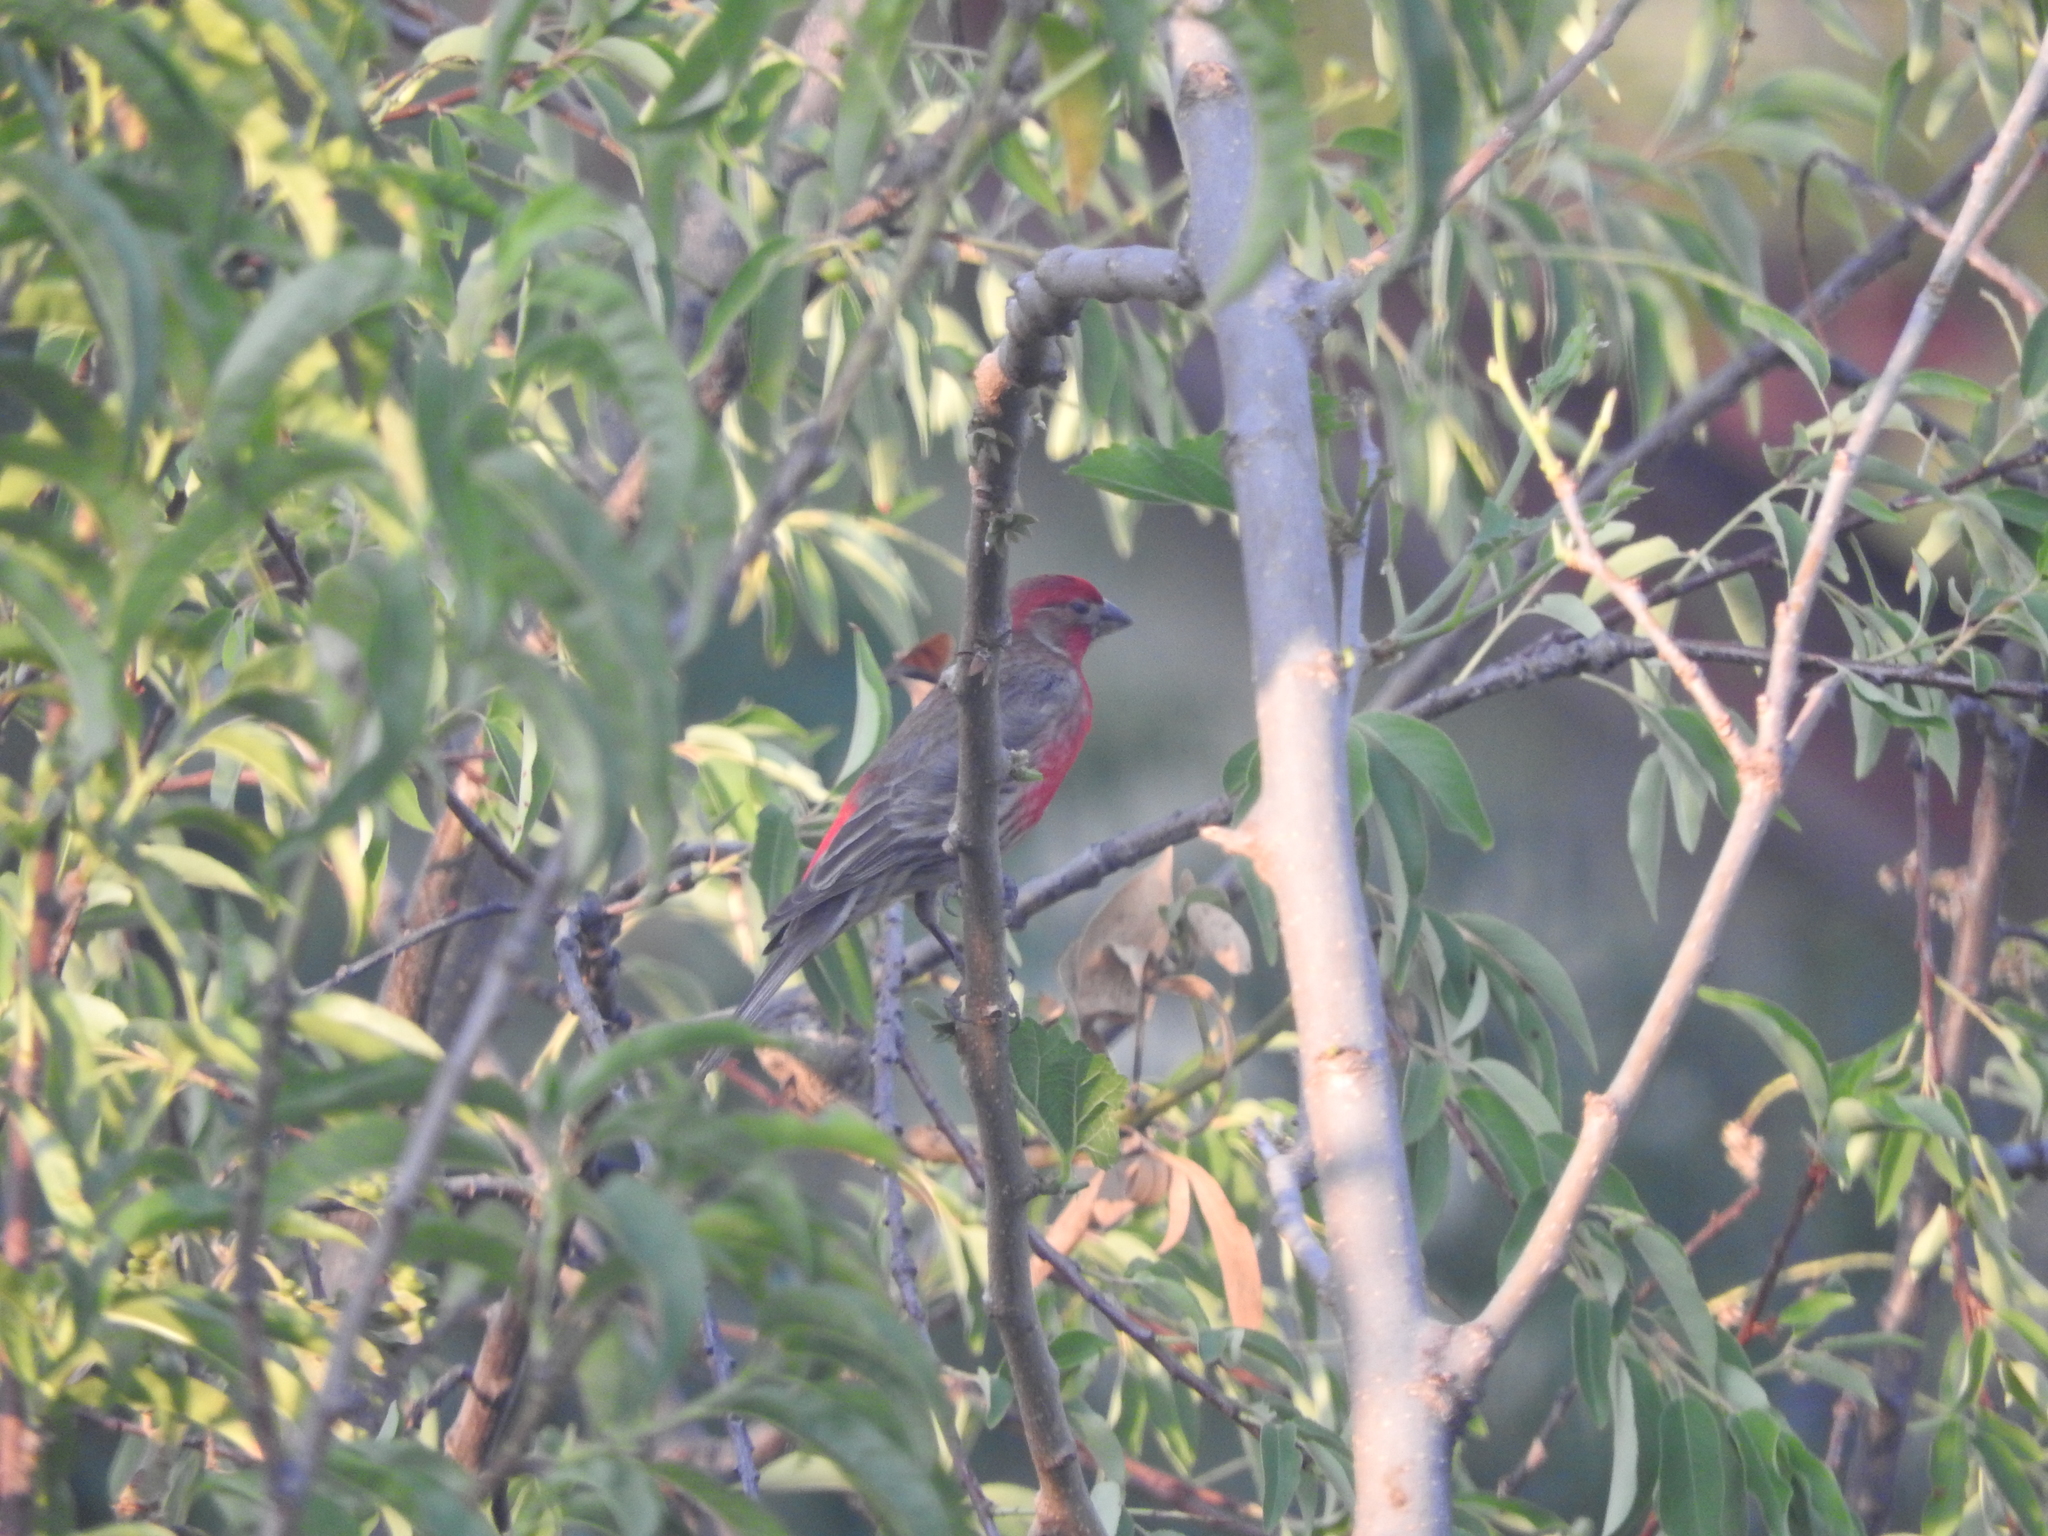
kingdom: Animalia
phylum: Chordata
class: Aves
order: Passeriformes
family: Fringillidae
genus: Haemorhous
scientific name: Haemorhous mexicanus
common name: House finch
